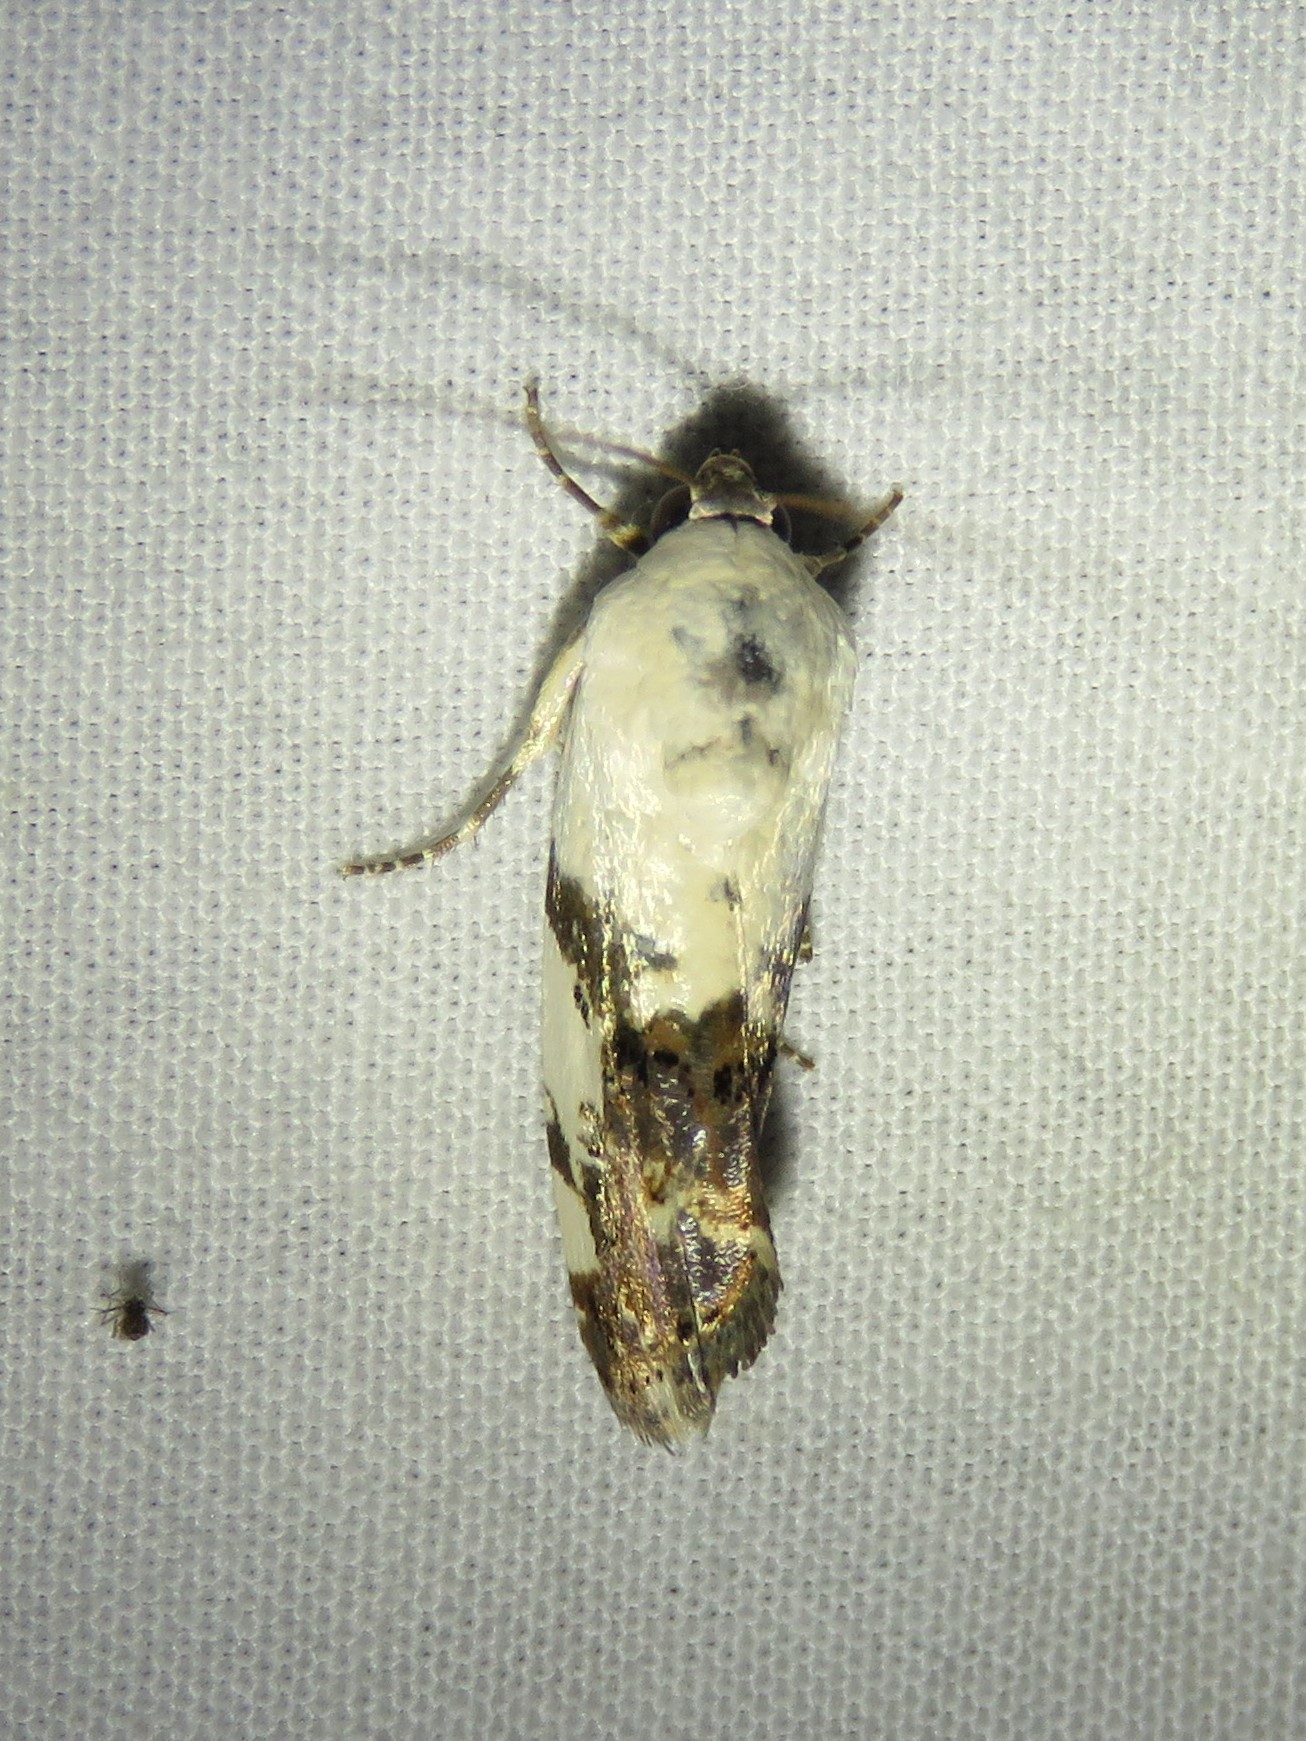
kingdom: Animalia
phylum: Arthropoda
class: Insecta
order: Lepidoptera
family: Noctuidae
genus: Acontia
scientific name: Acontia quadriplaga
